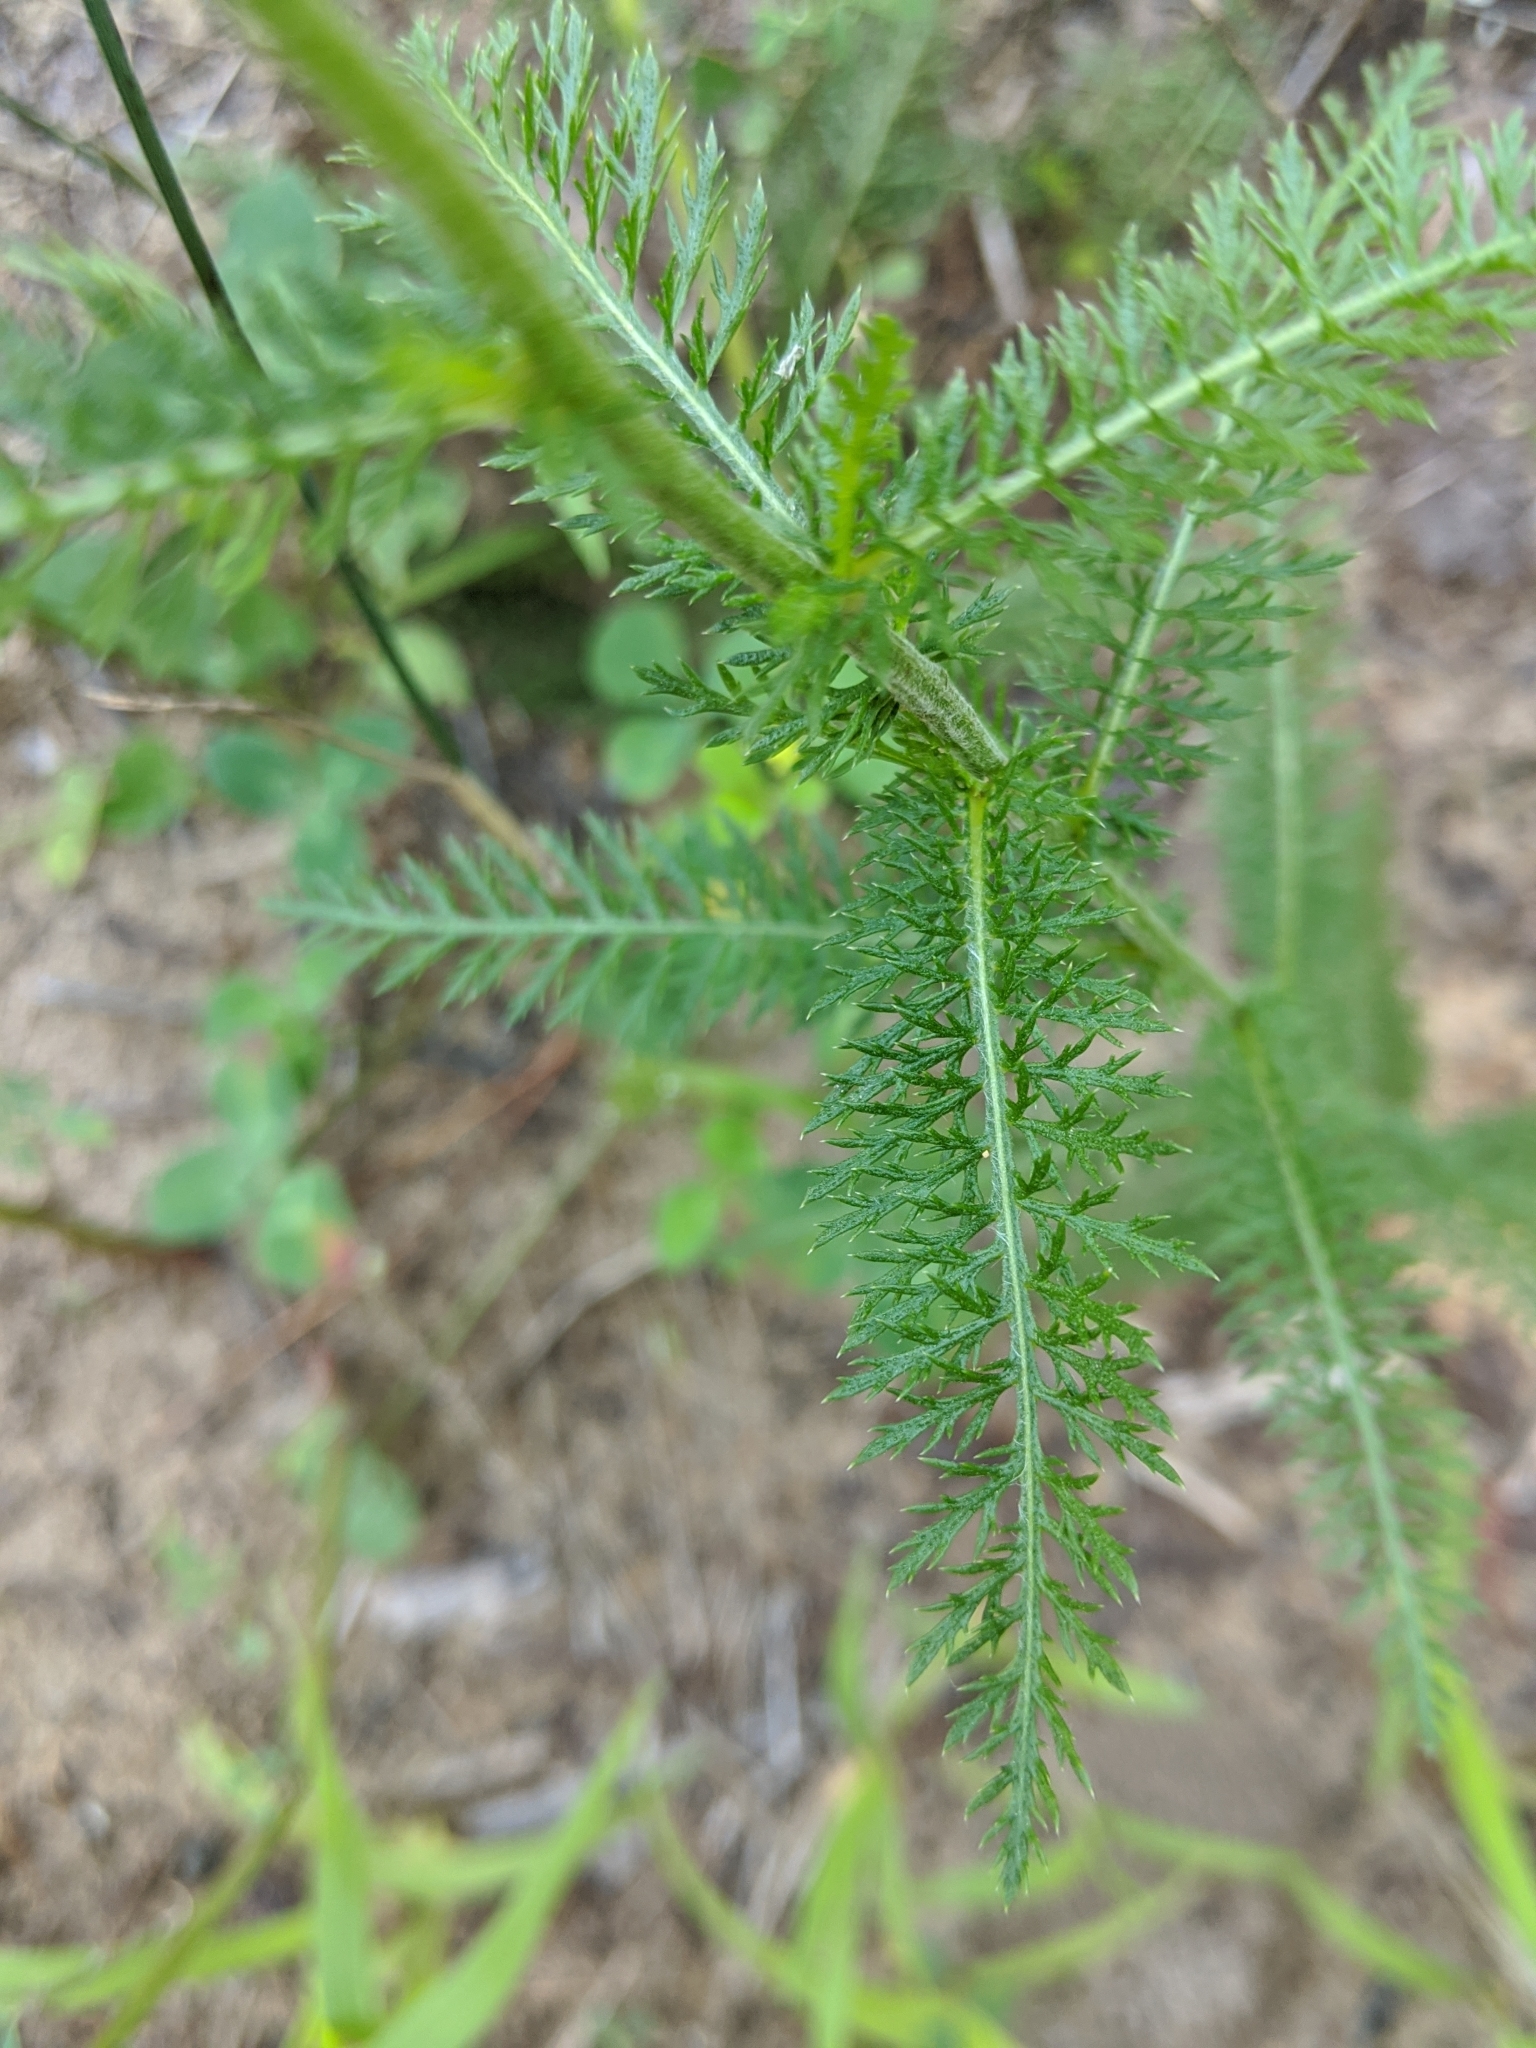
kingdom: Plantae
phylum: Tracheophyta
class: Magnoliopsida
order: Asterales
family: Asteraceae
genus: Achillea
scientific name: Achillea millefolium
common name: Yarrow
